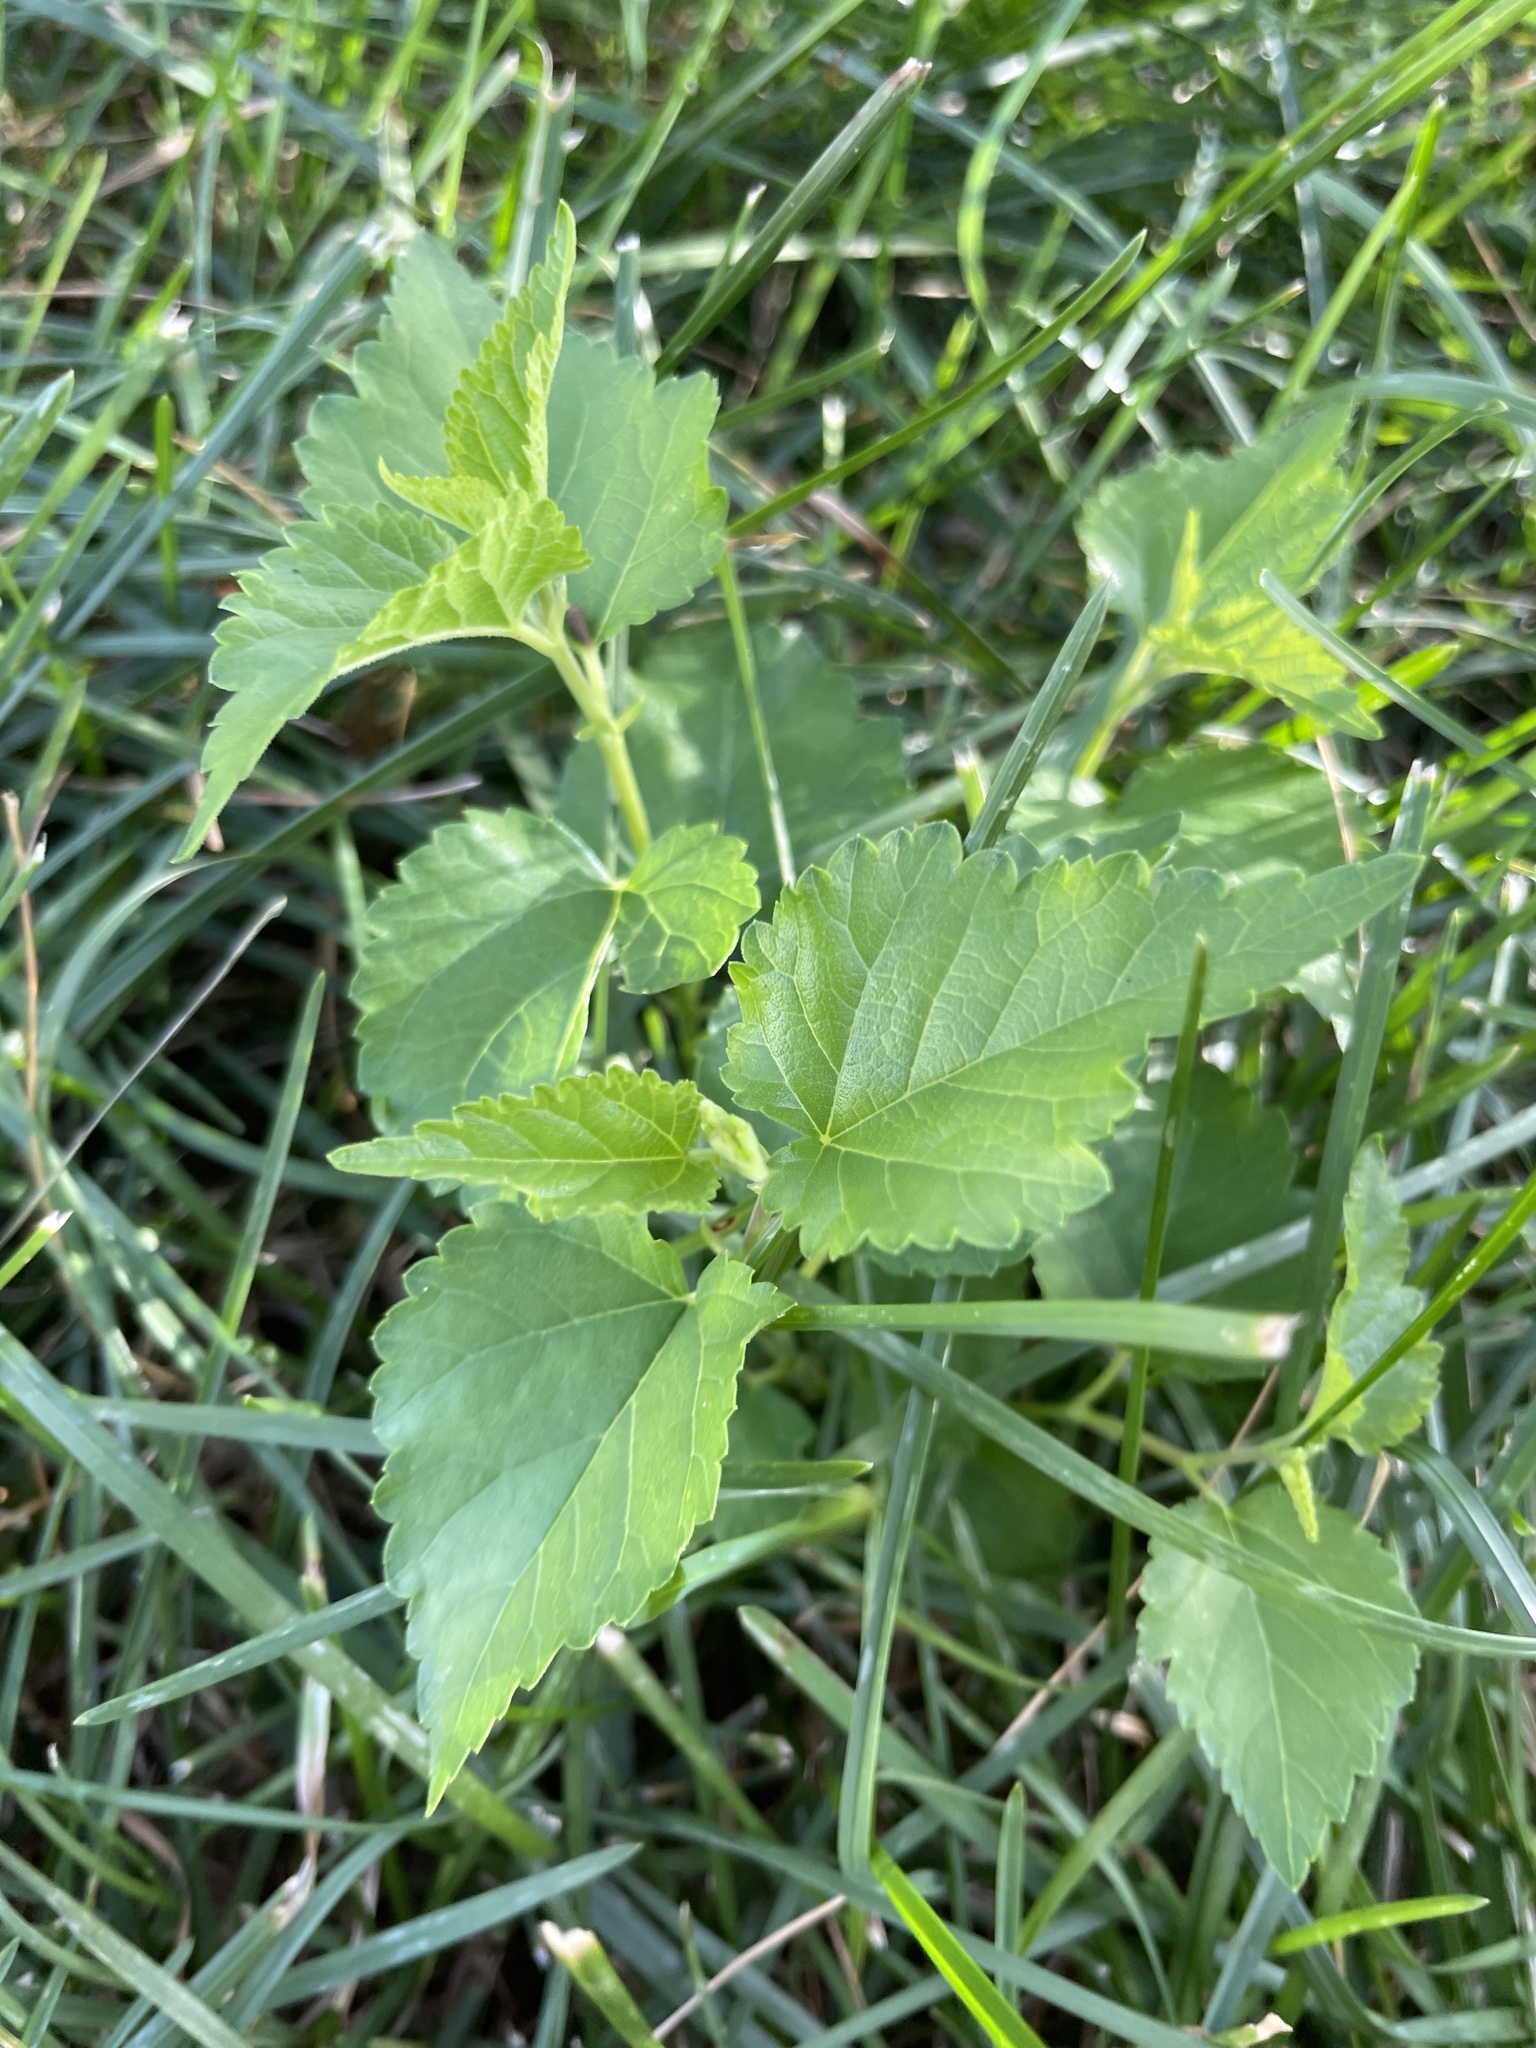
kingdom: Plantae
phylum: Tracheophyta
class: Magnoliopsida
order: Rosales
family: Moraceae
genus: Morus
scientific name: Morus alba
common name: White mulberry
